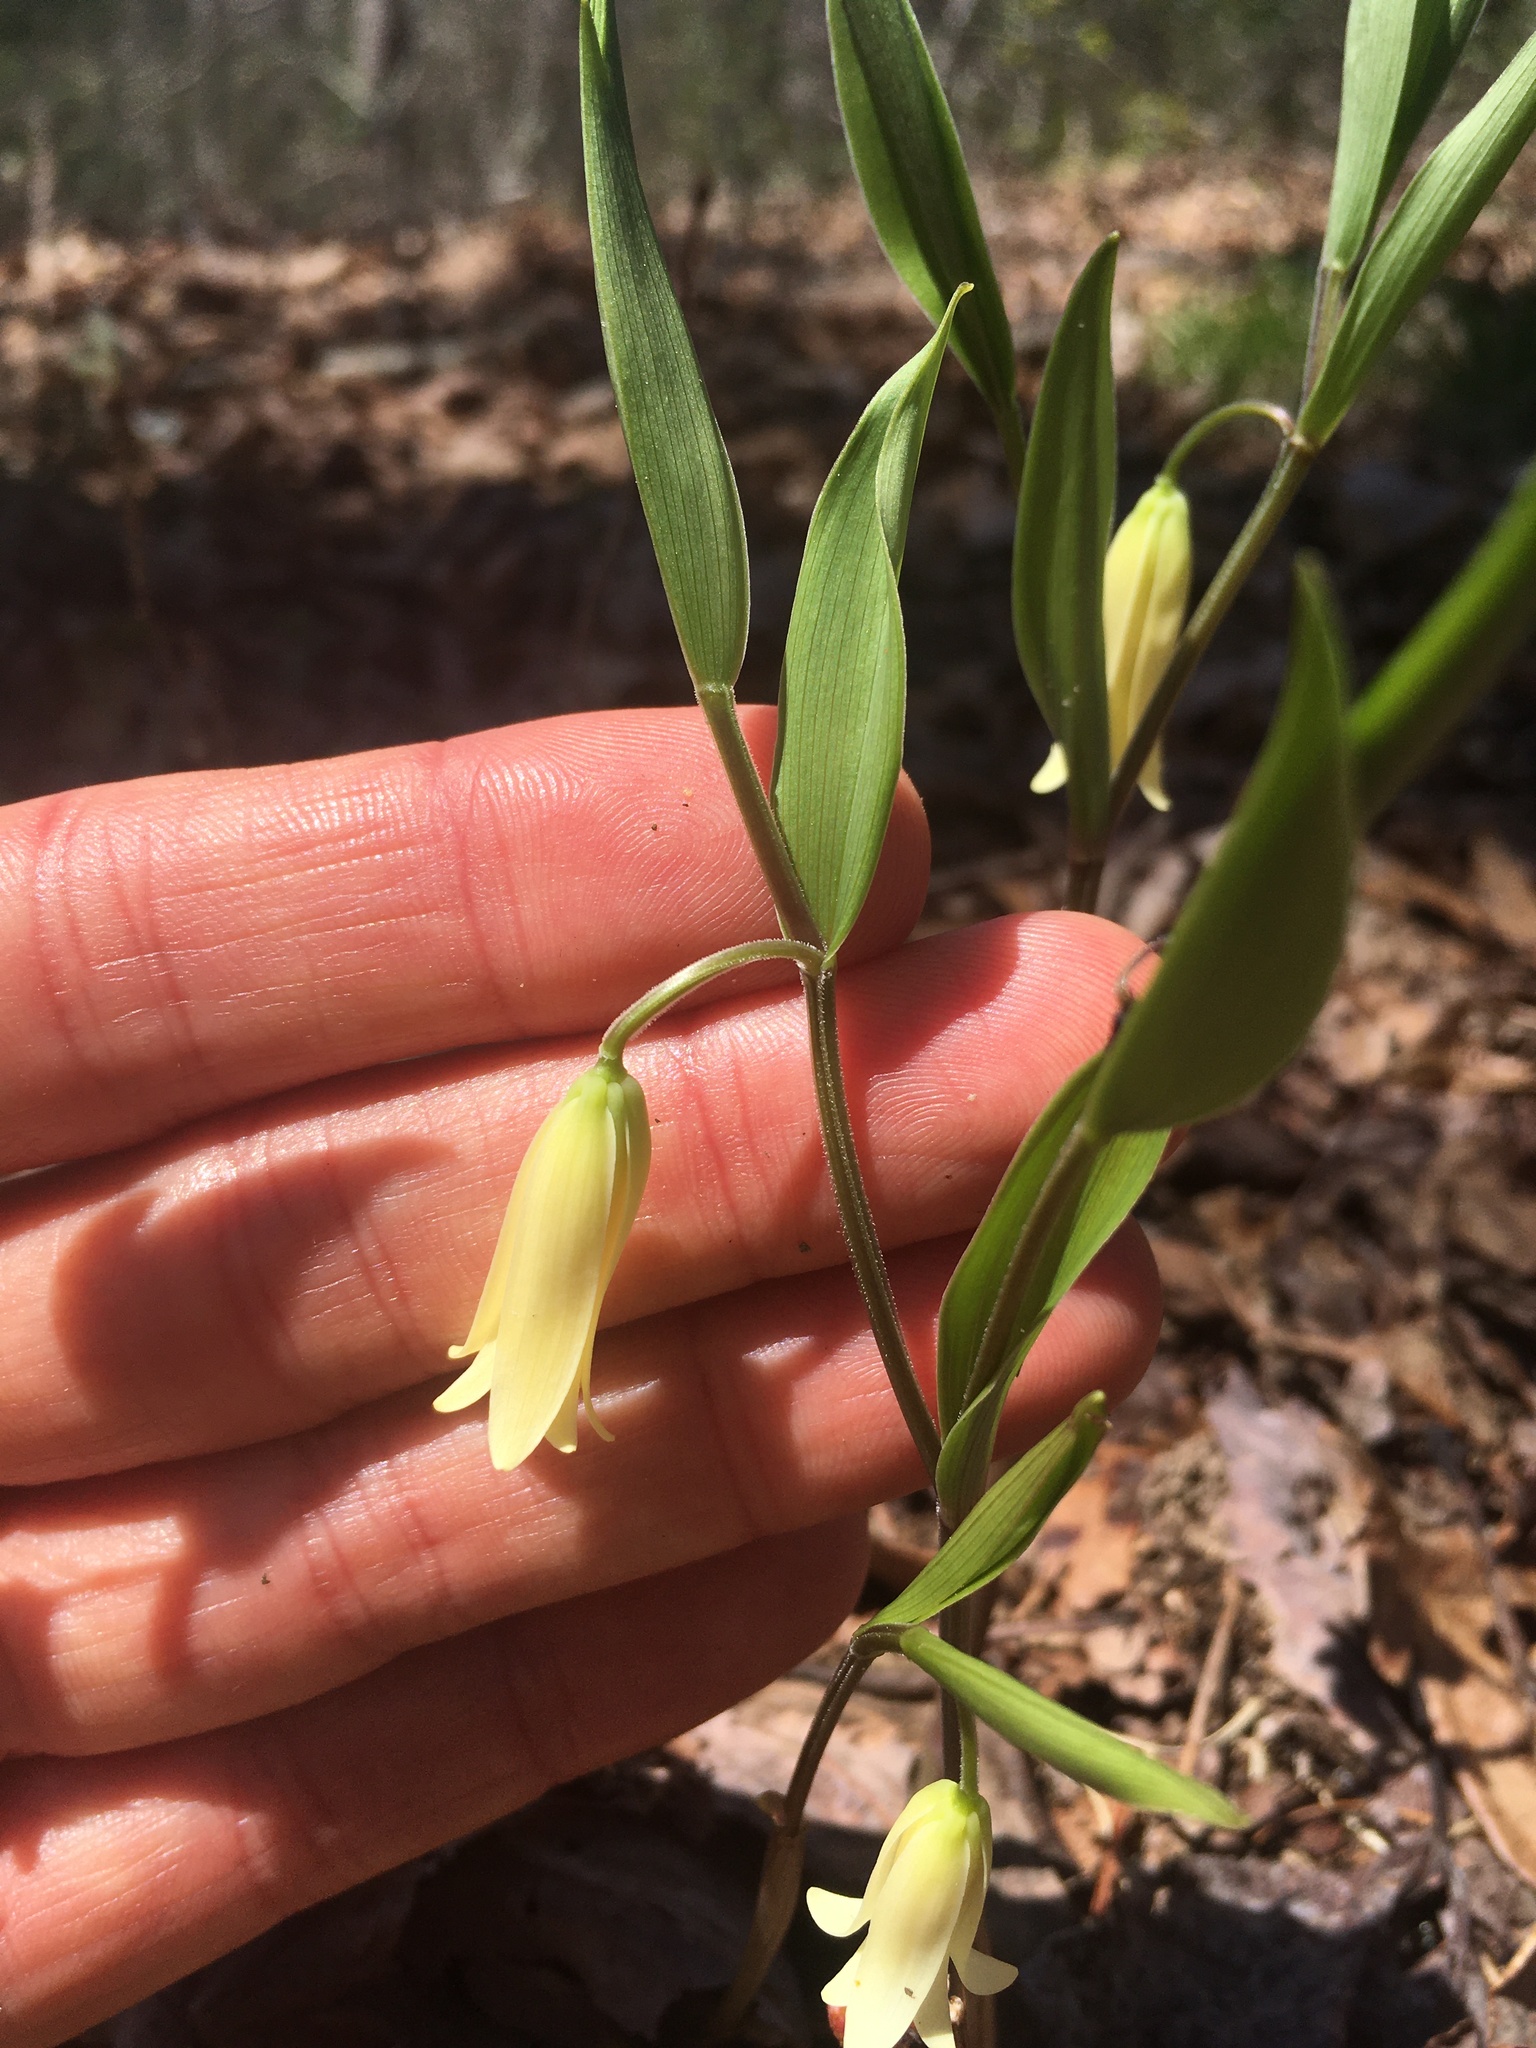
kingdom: Plantae
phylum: Tracheophyta
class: Liliopsida
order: Liliales
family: Colchicaceae
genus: Uvularia
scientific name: Uvularia puberula
